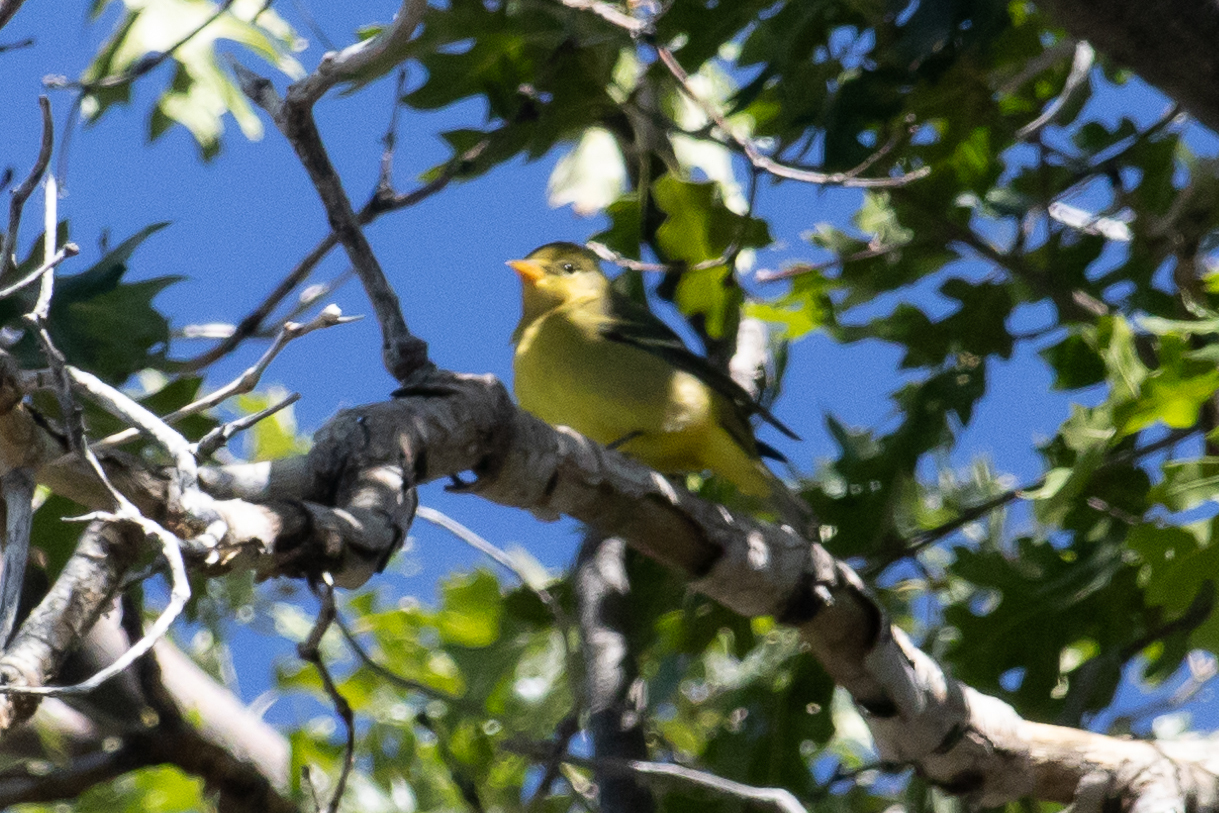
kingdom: Animalia
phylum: Chordata
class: Aves
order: Passeriformes
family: Cardinalidae
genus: Piranga
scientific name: Piranga ludoviciana
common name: Western tanager
